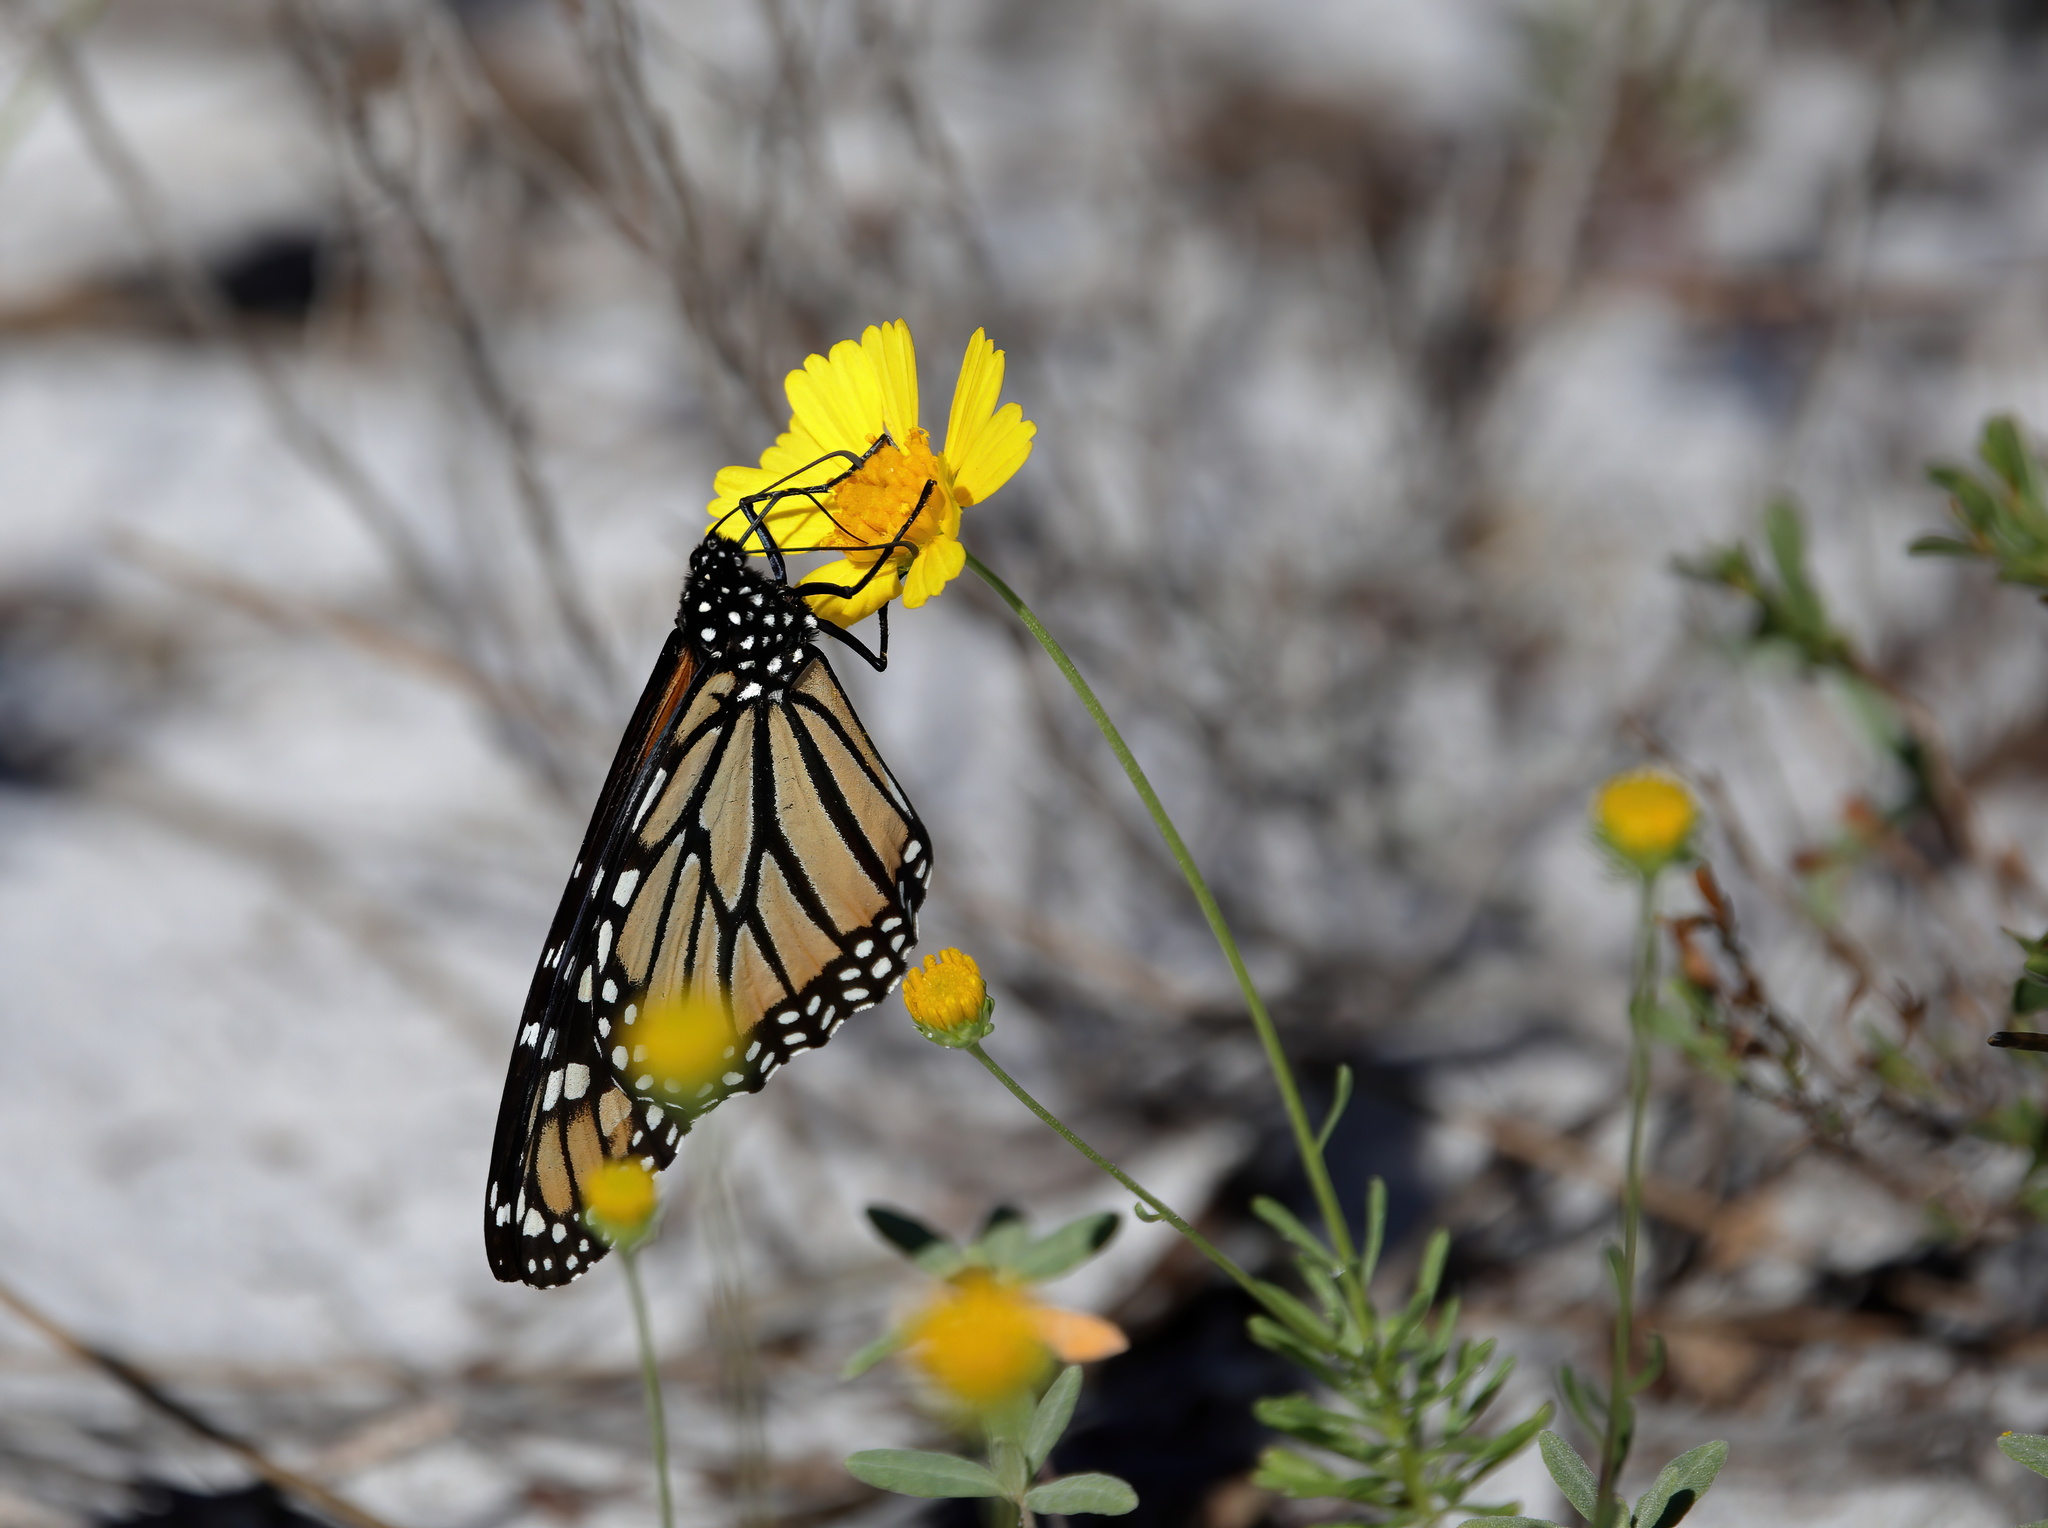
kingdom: Animalia
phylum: Arthropoda
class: Insecta
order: Lepidoptera
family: Nymphalidae
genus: Danaus
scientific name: Danaus plexippus
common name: Monarch
